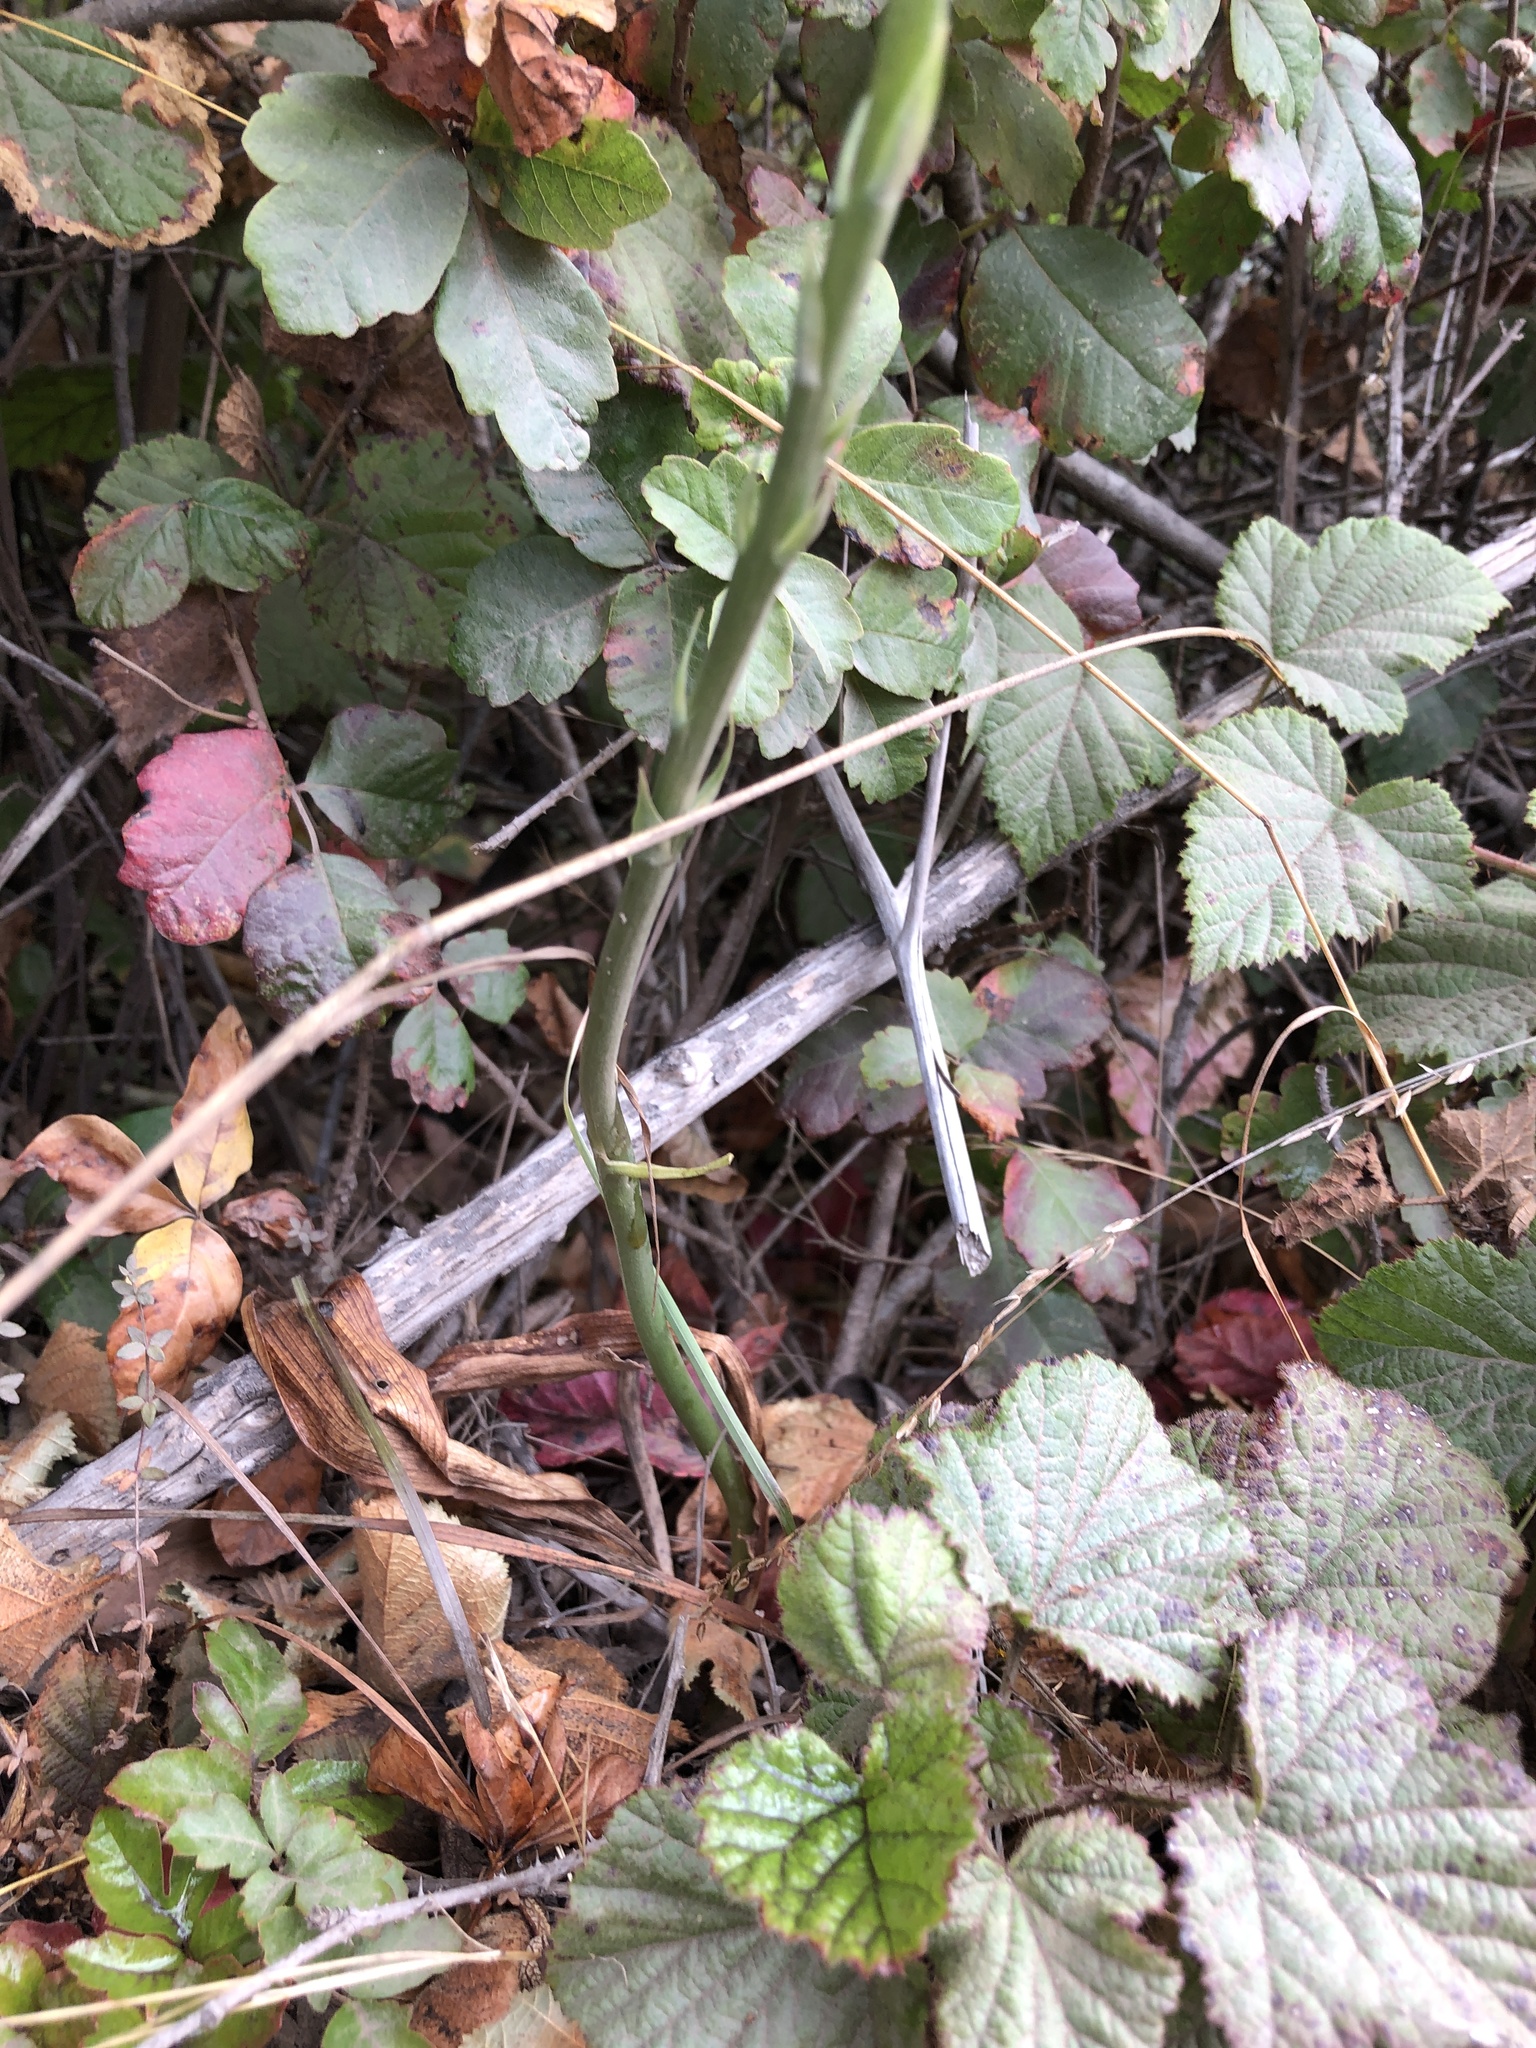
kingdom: Plantae
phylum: Tracheophyta
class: Liliopsida
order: Asparagales
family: Orchidaceae
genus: Platanthera
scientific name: Platanthera elegans
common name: Coast piperia
